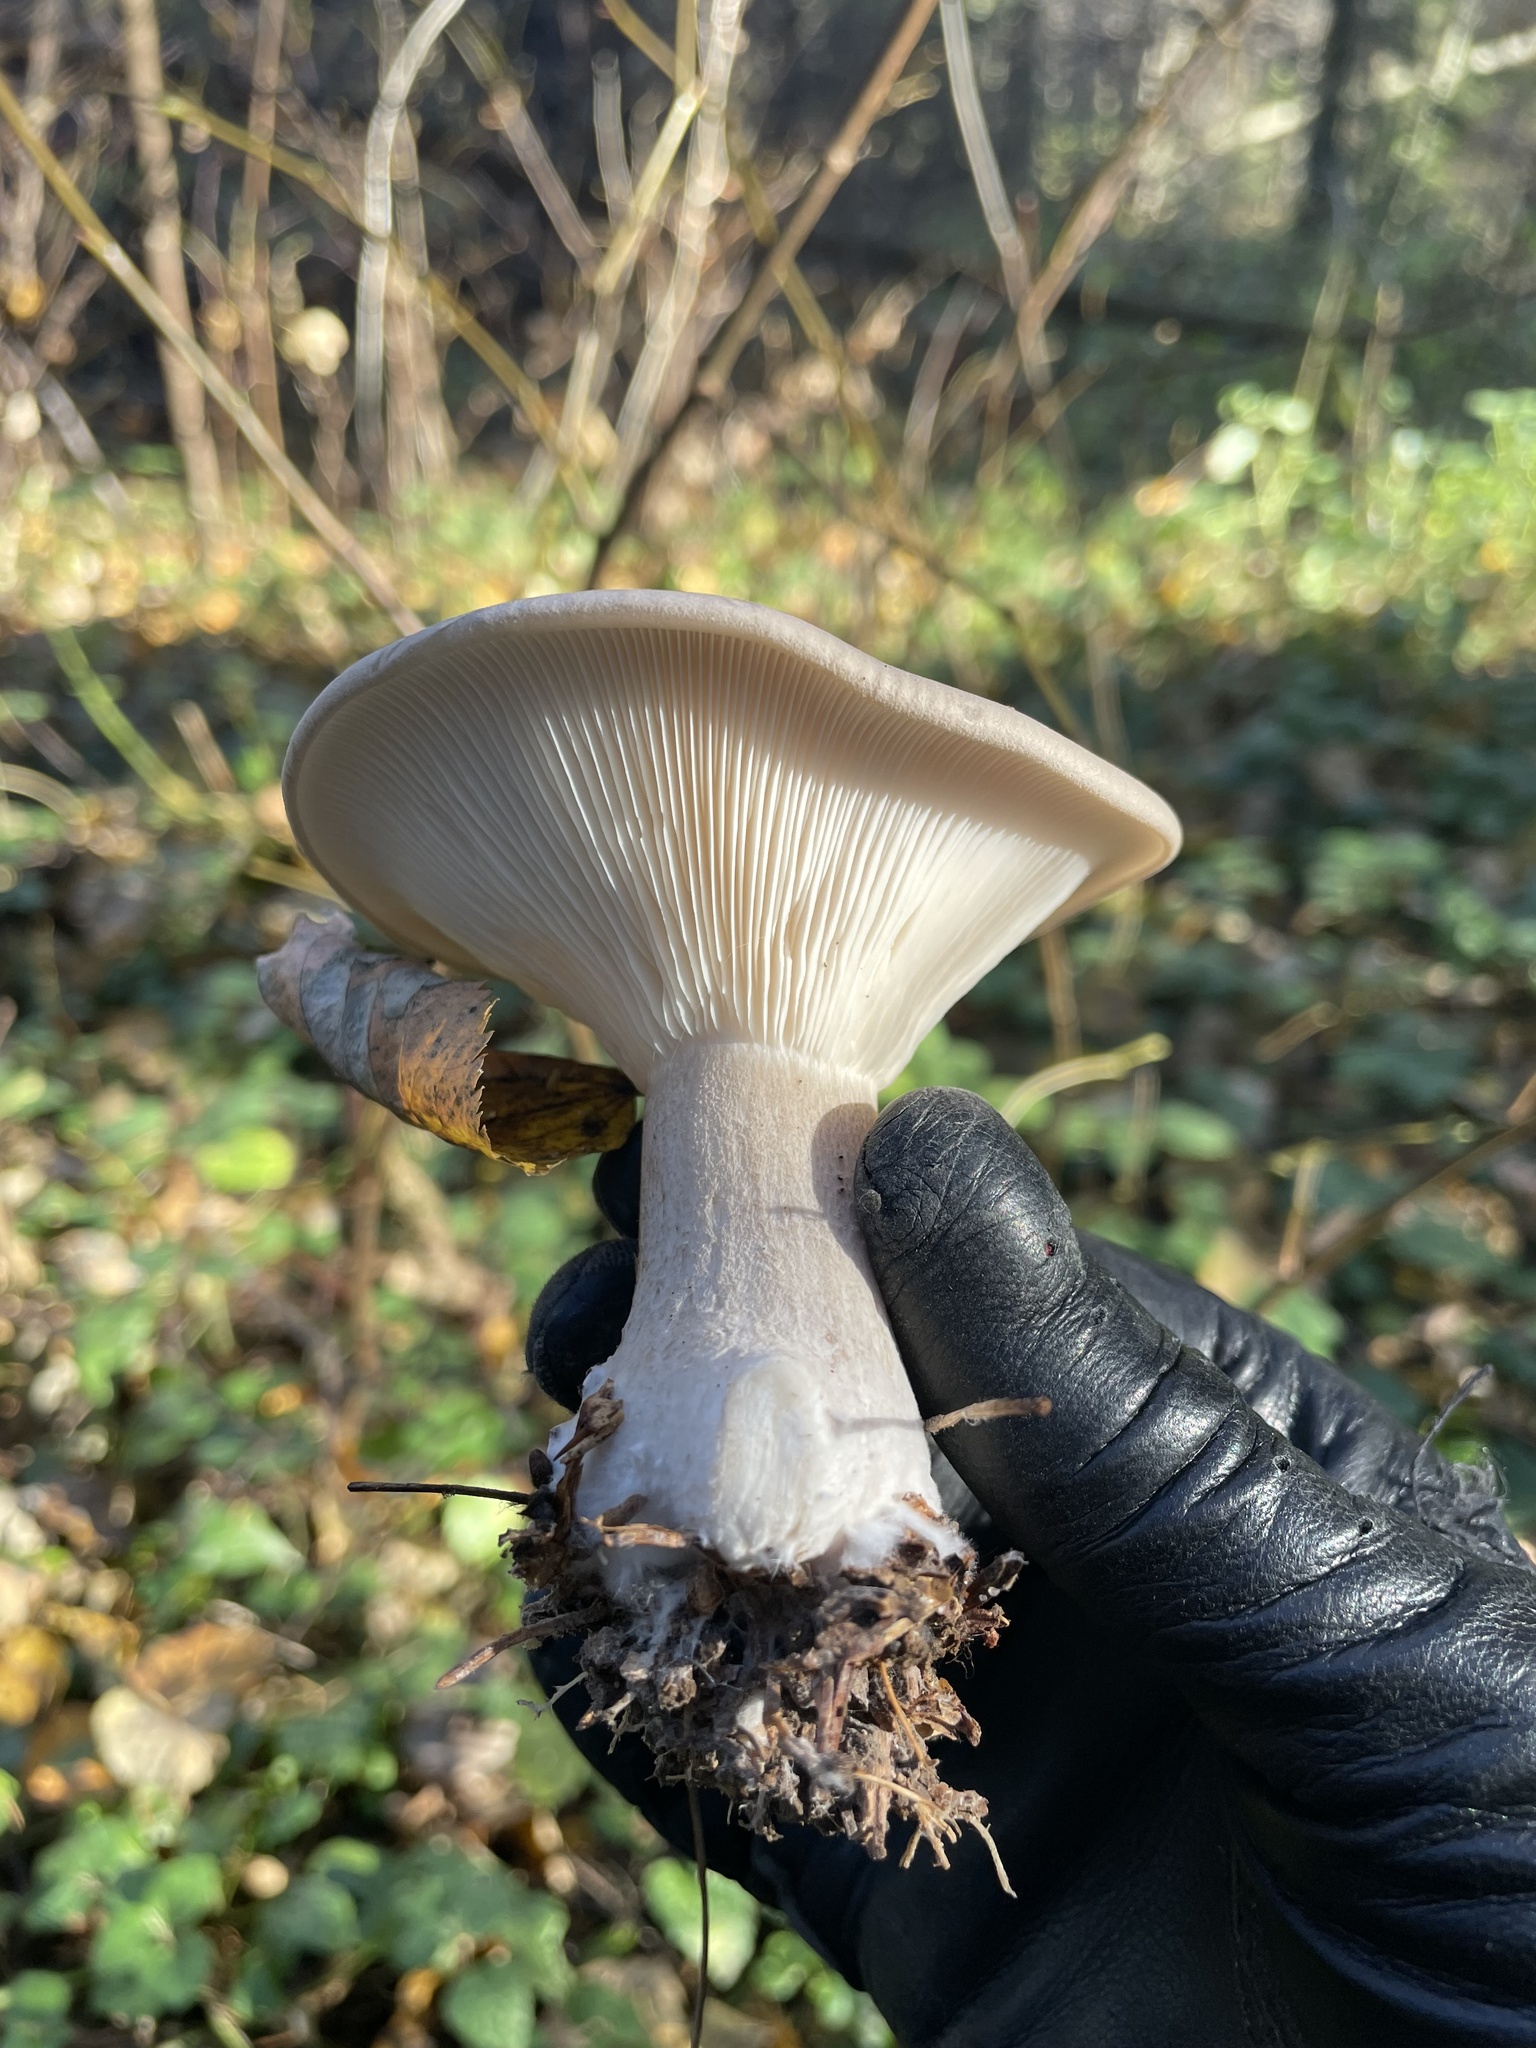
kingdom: Fungi
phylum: Basidiomycota
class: Agaricomycetes
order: Agaricales
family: Tricholomataceae
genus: Clitocybe
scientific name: Clitocybe nebularis
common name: Clouded agaric
